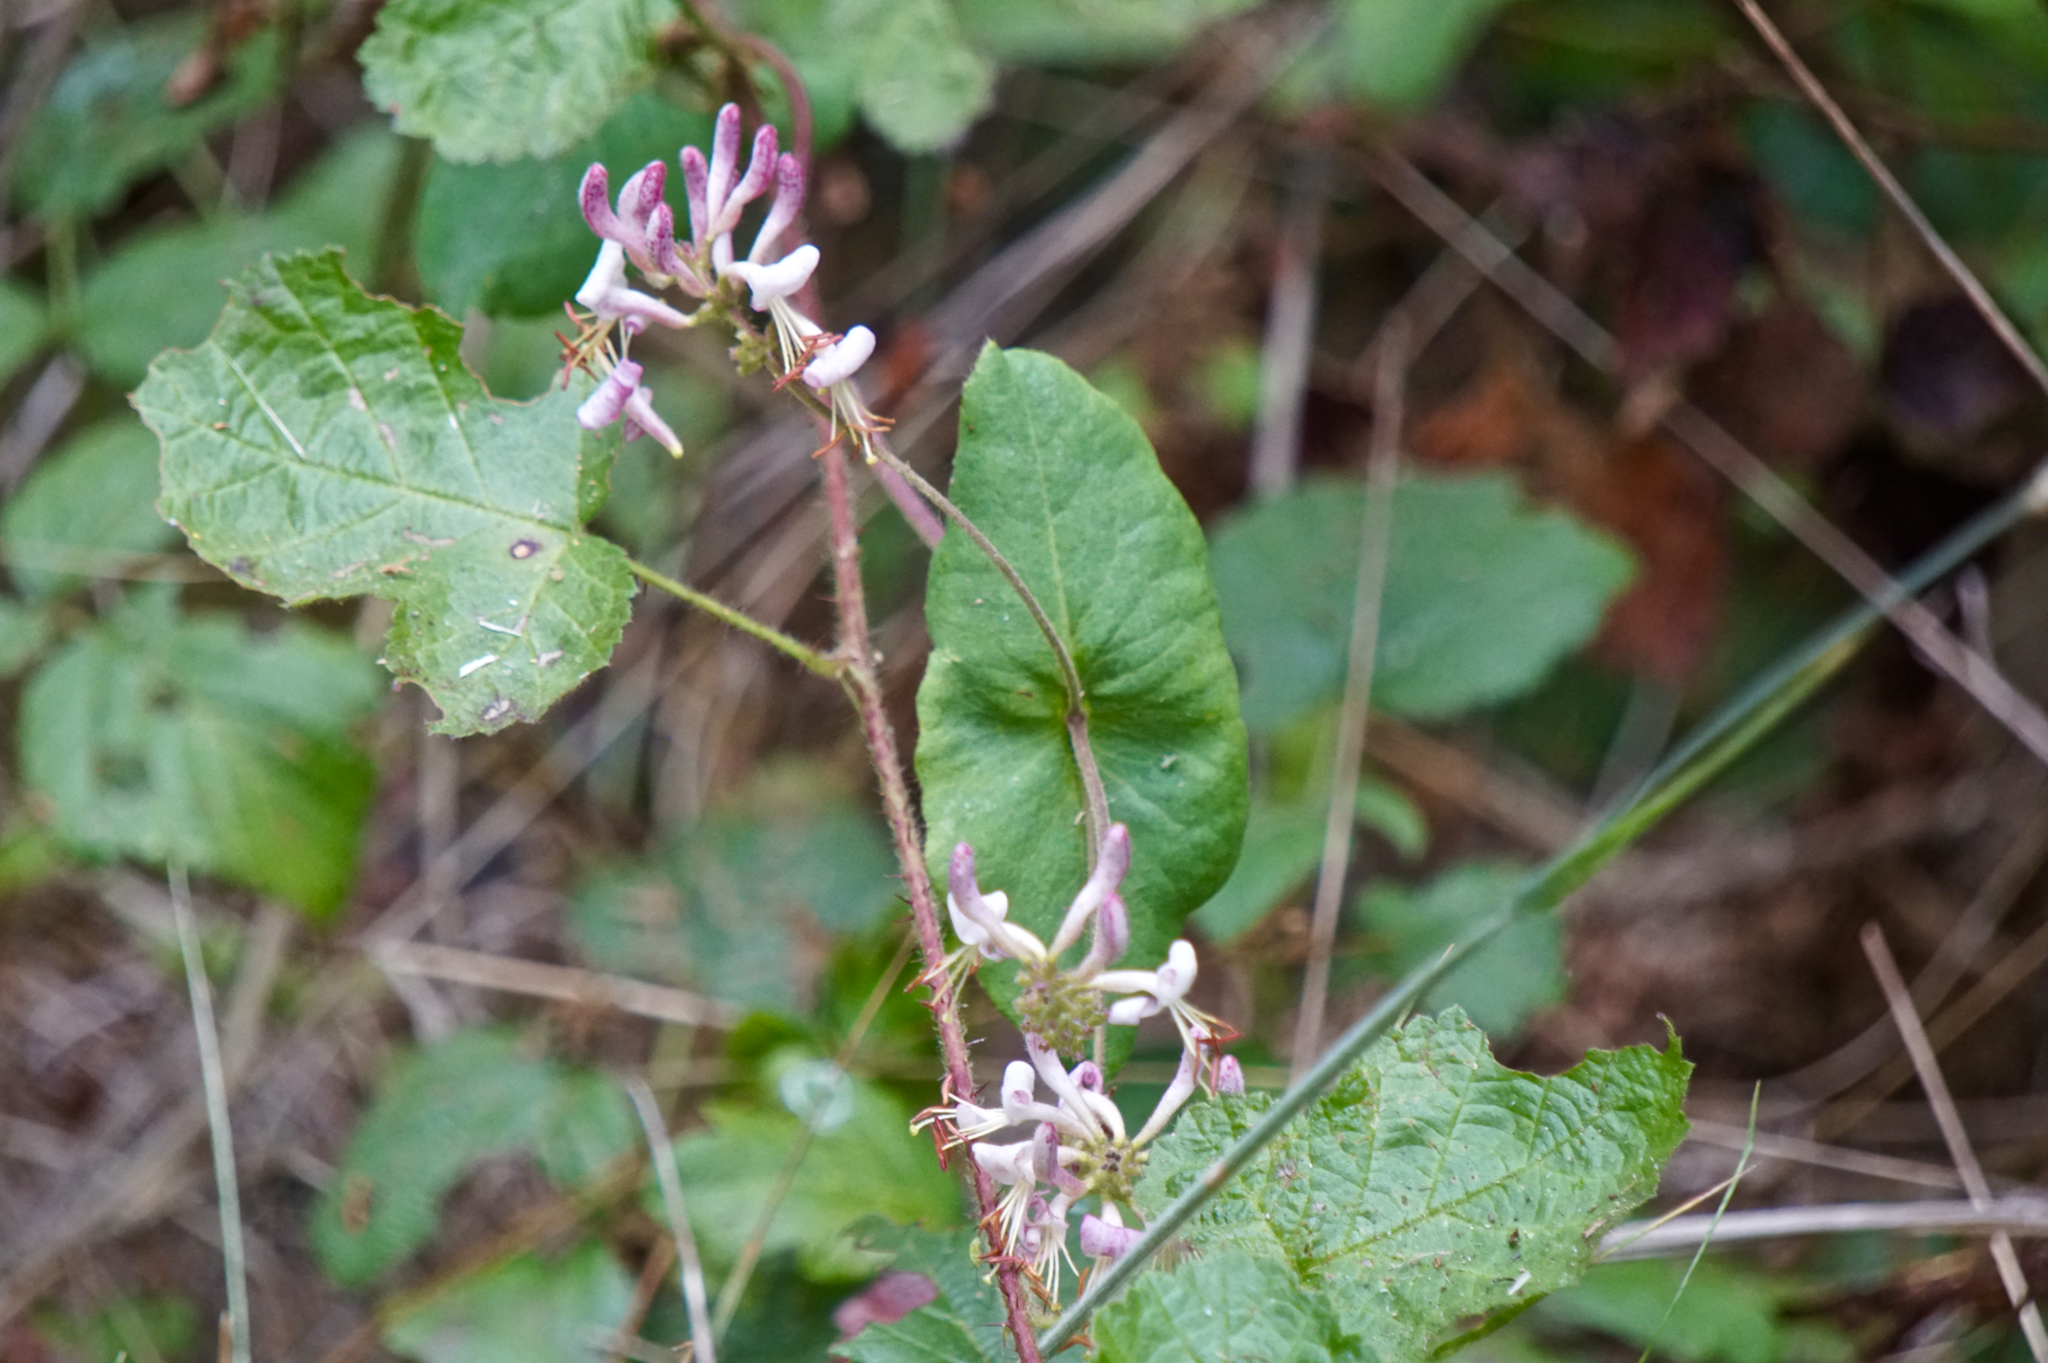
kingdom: Plantae
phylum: Tracheophyta
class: Magnoliopsida
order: Dipsacales
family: Caprifoliaceae
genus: Lonicera
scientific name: Lonicera hispidula
